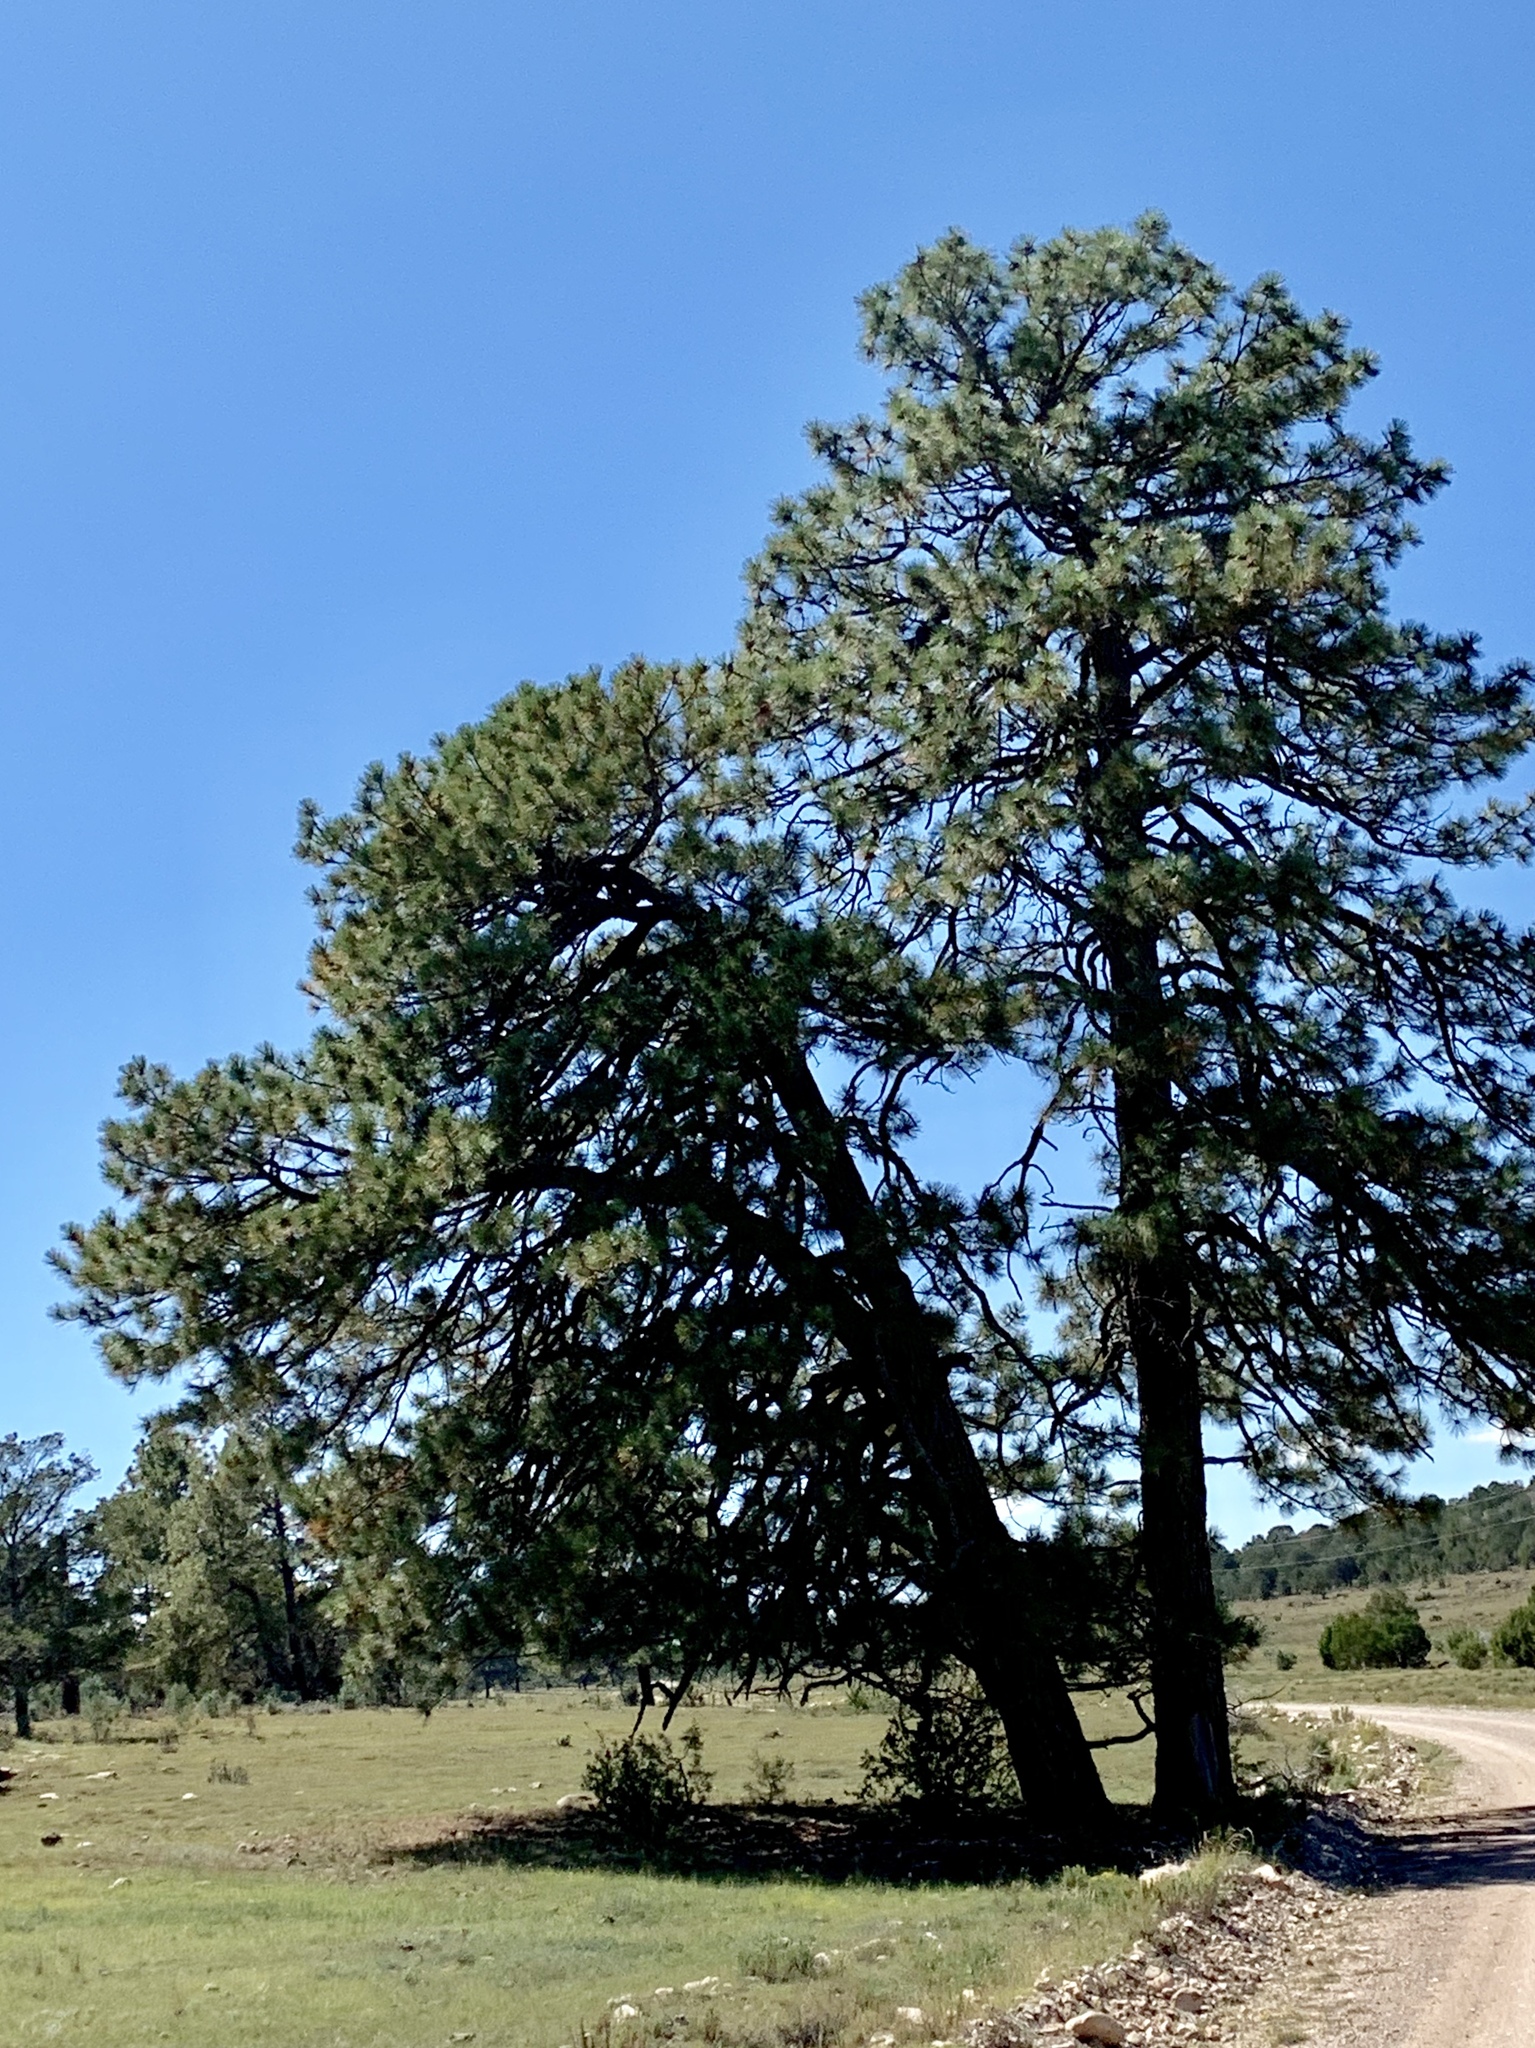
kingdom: Plantae
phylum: Tracheophyta
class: Pinopsida
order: Pinales
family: Pinaceae
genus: Pinus
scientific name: Pinus ponderosa
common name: Western yellow-pine
